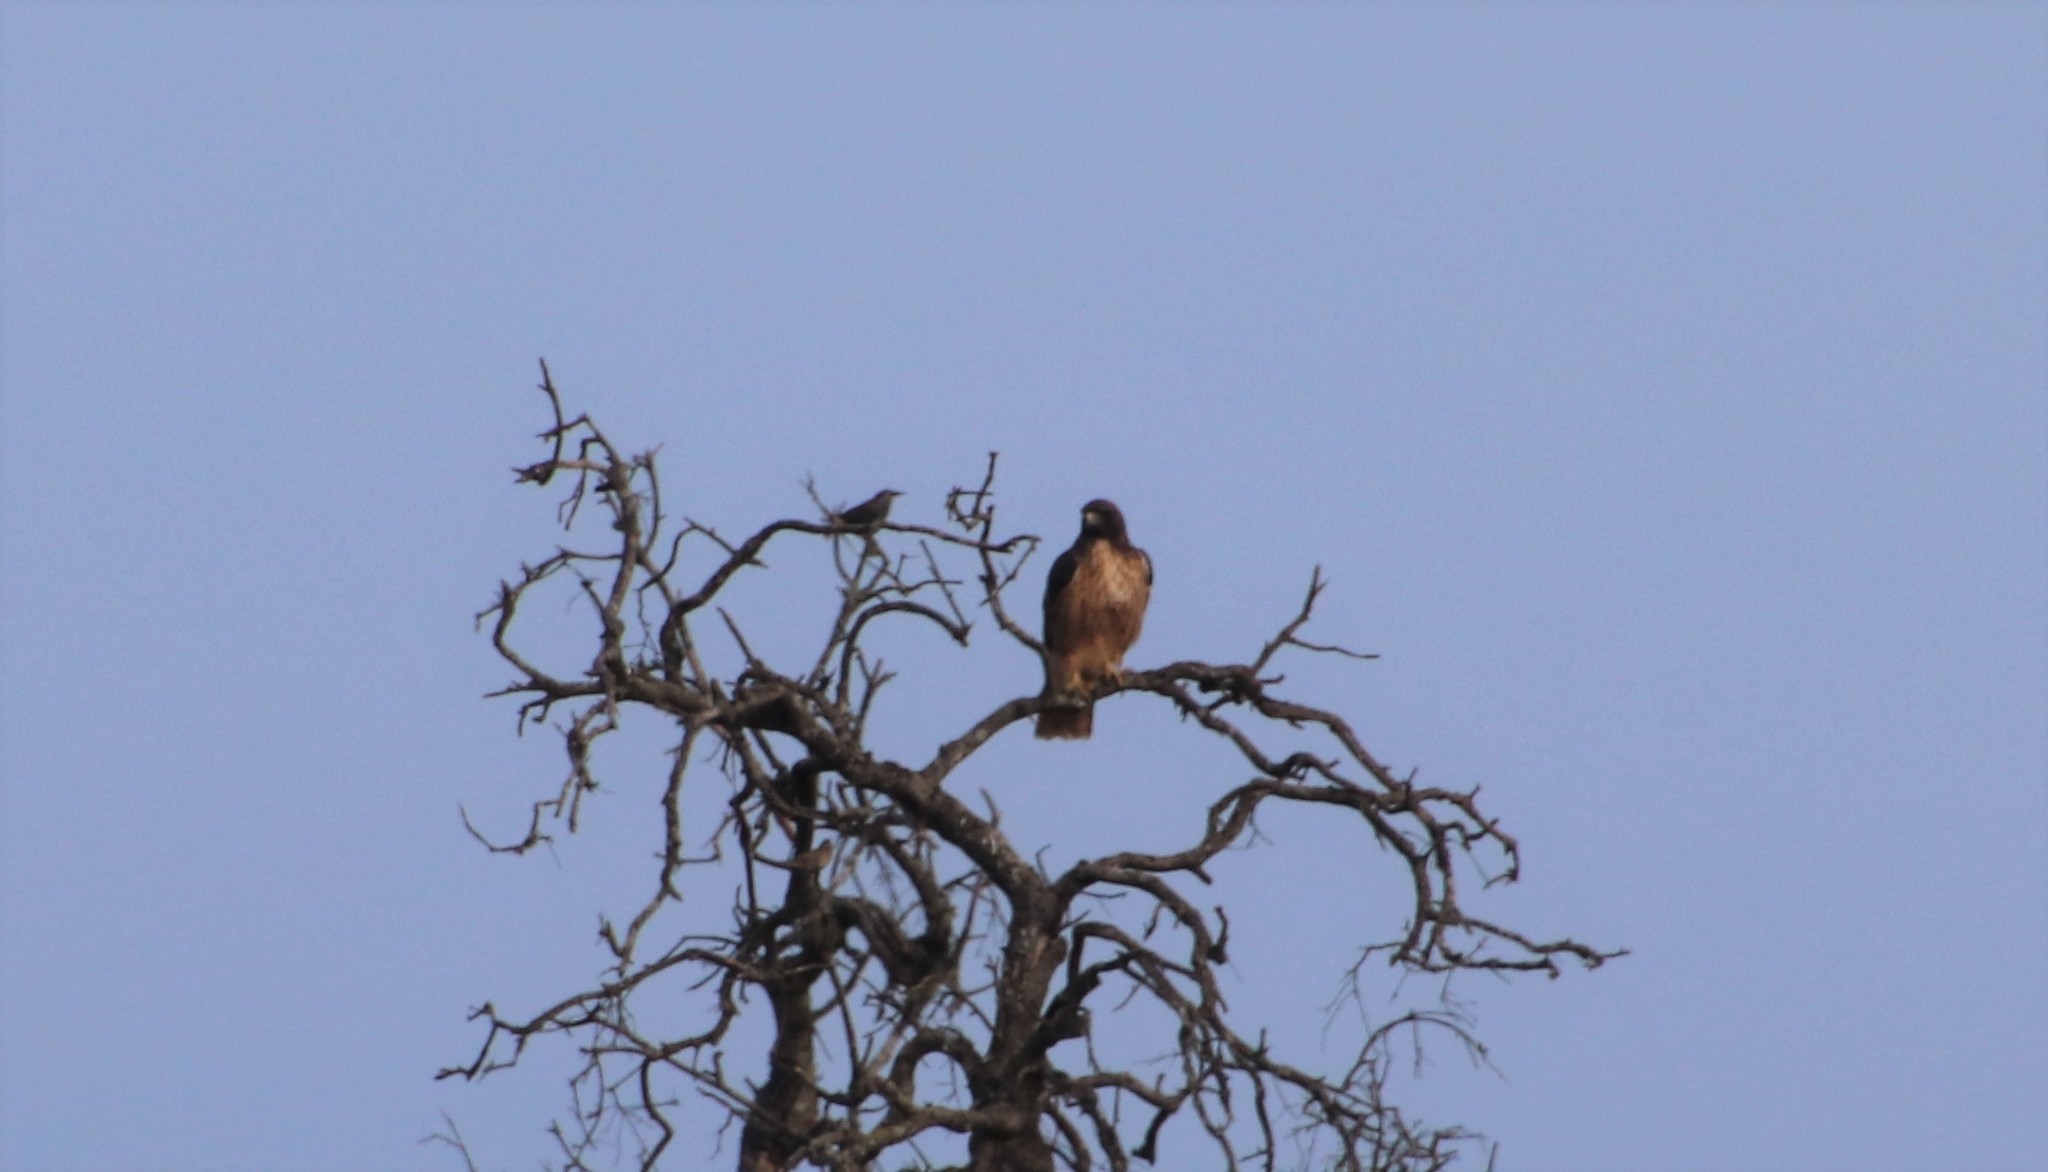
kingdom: Animalia
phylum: Chordata
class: Aves
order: Accipitriformes
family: Accipitridae
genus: Buteo
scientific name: Buteo jamaicensis
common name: Red-tailed hawk
